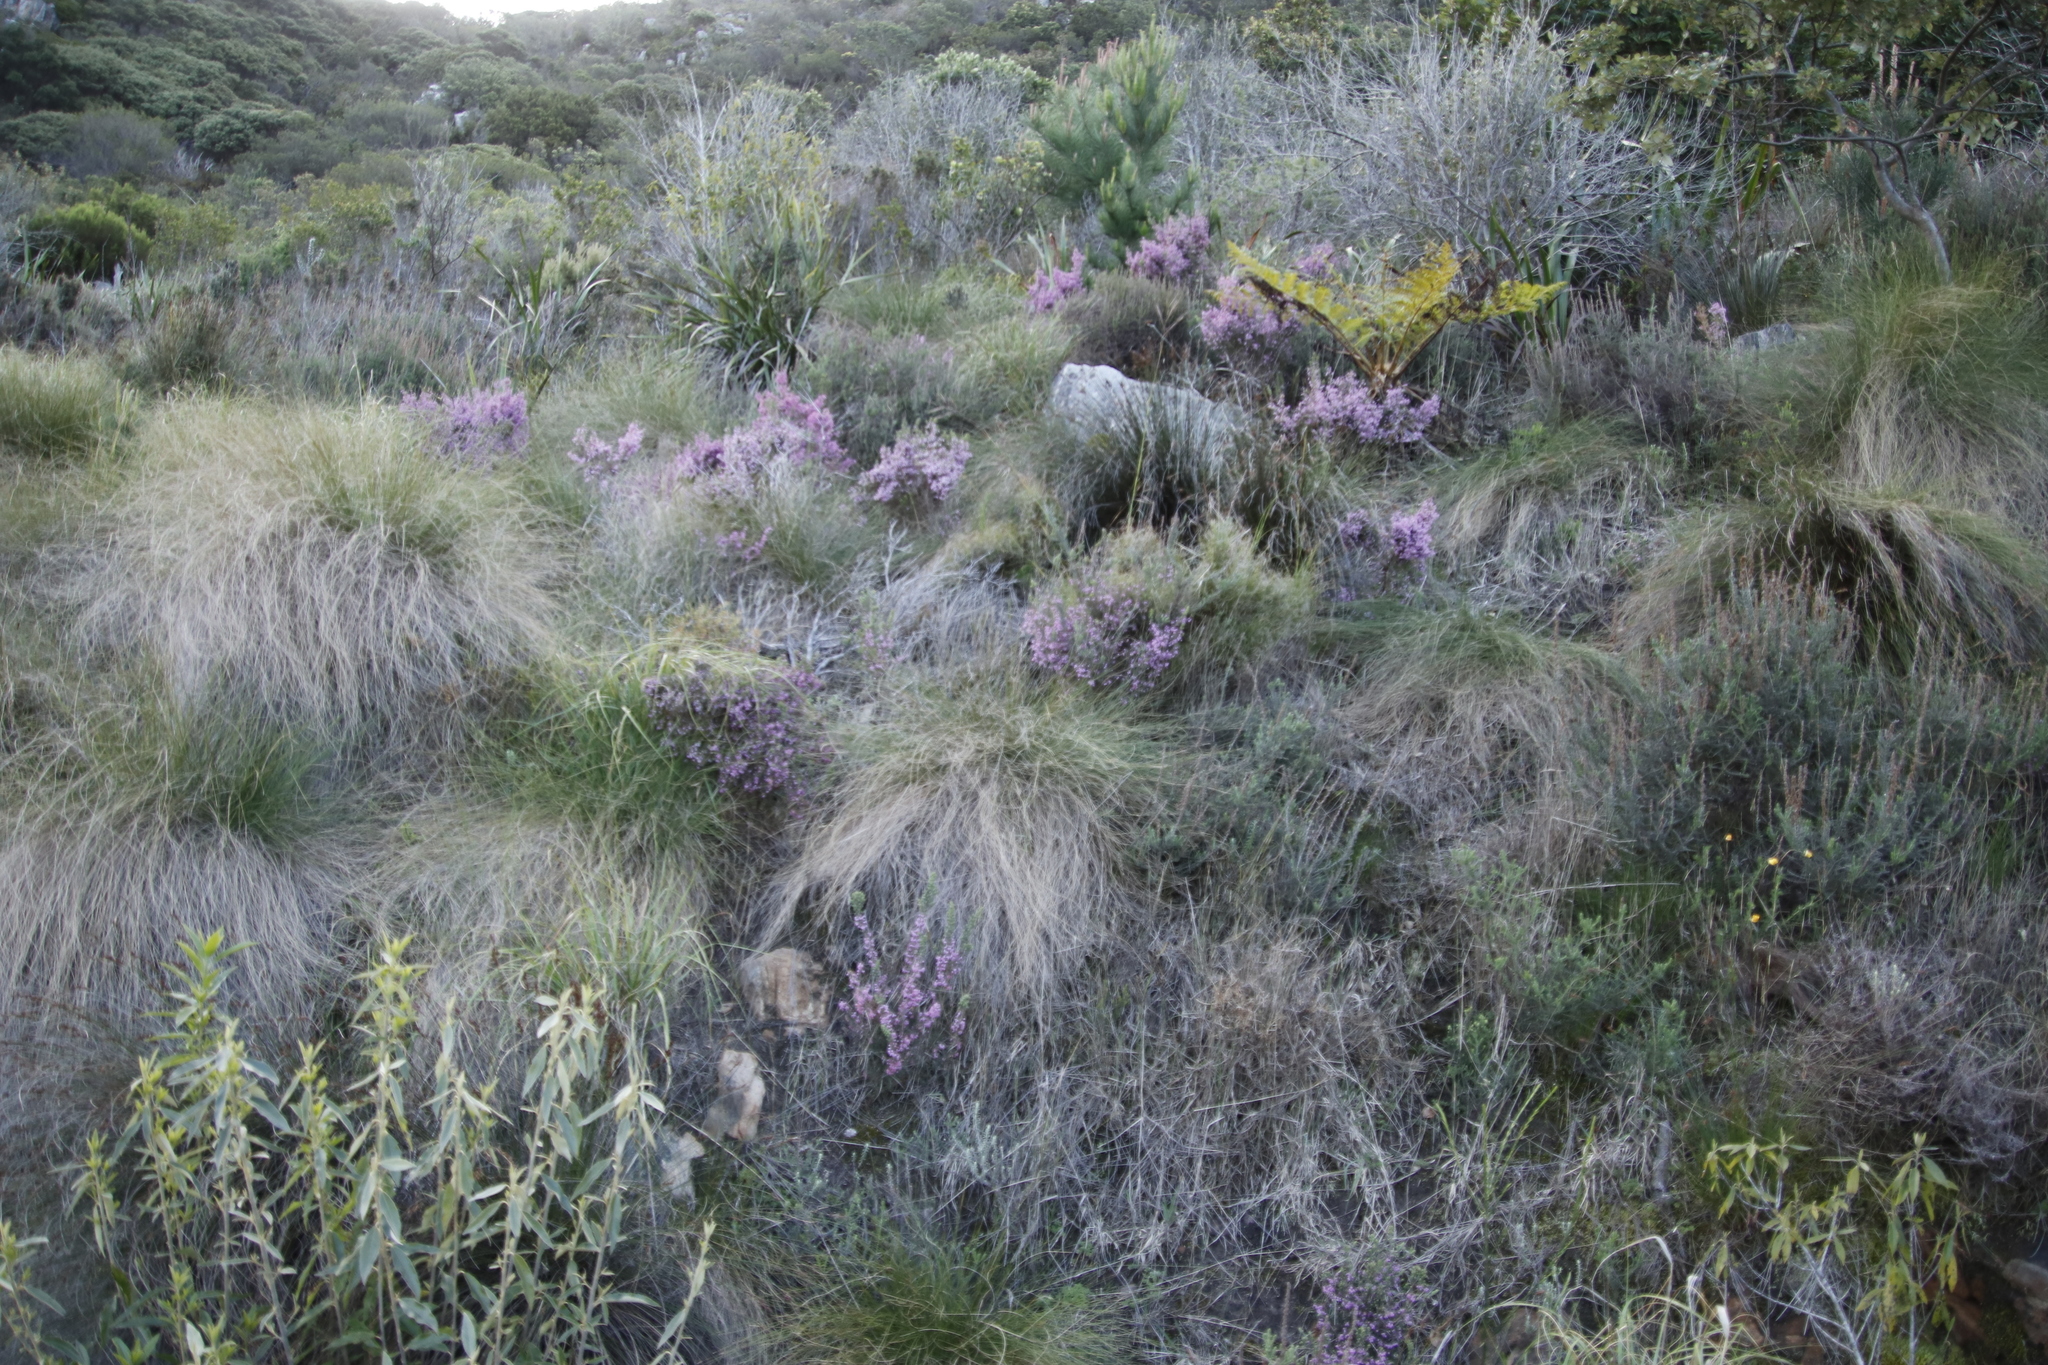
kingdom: Plantae
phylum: Tracheophyta
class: Magnoliopsida
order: Ericales
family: Ericaceae
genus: Erica
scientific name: Erica hirtiflora
